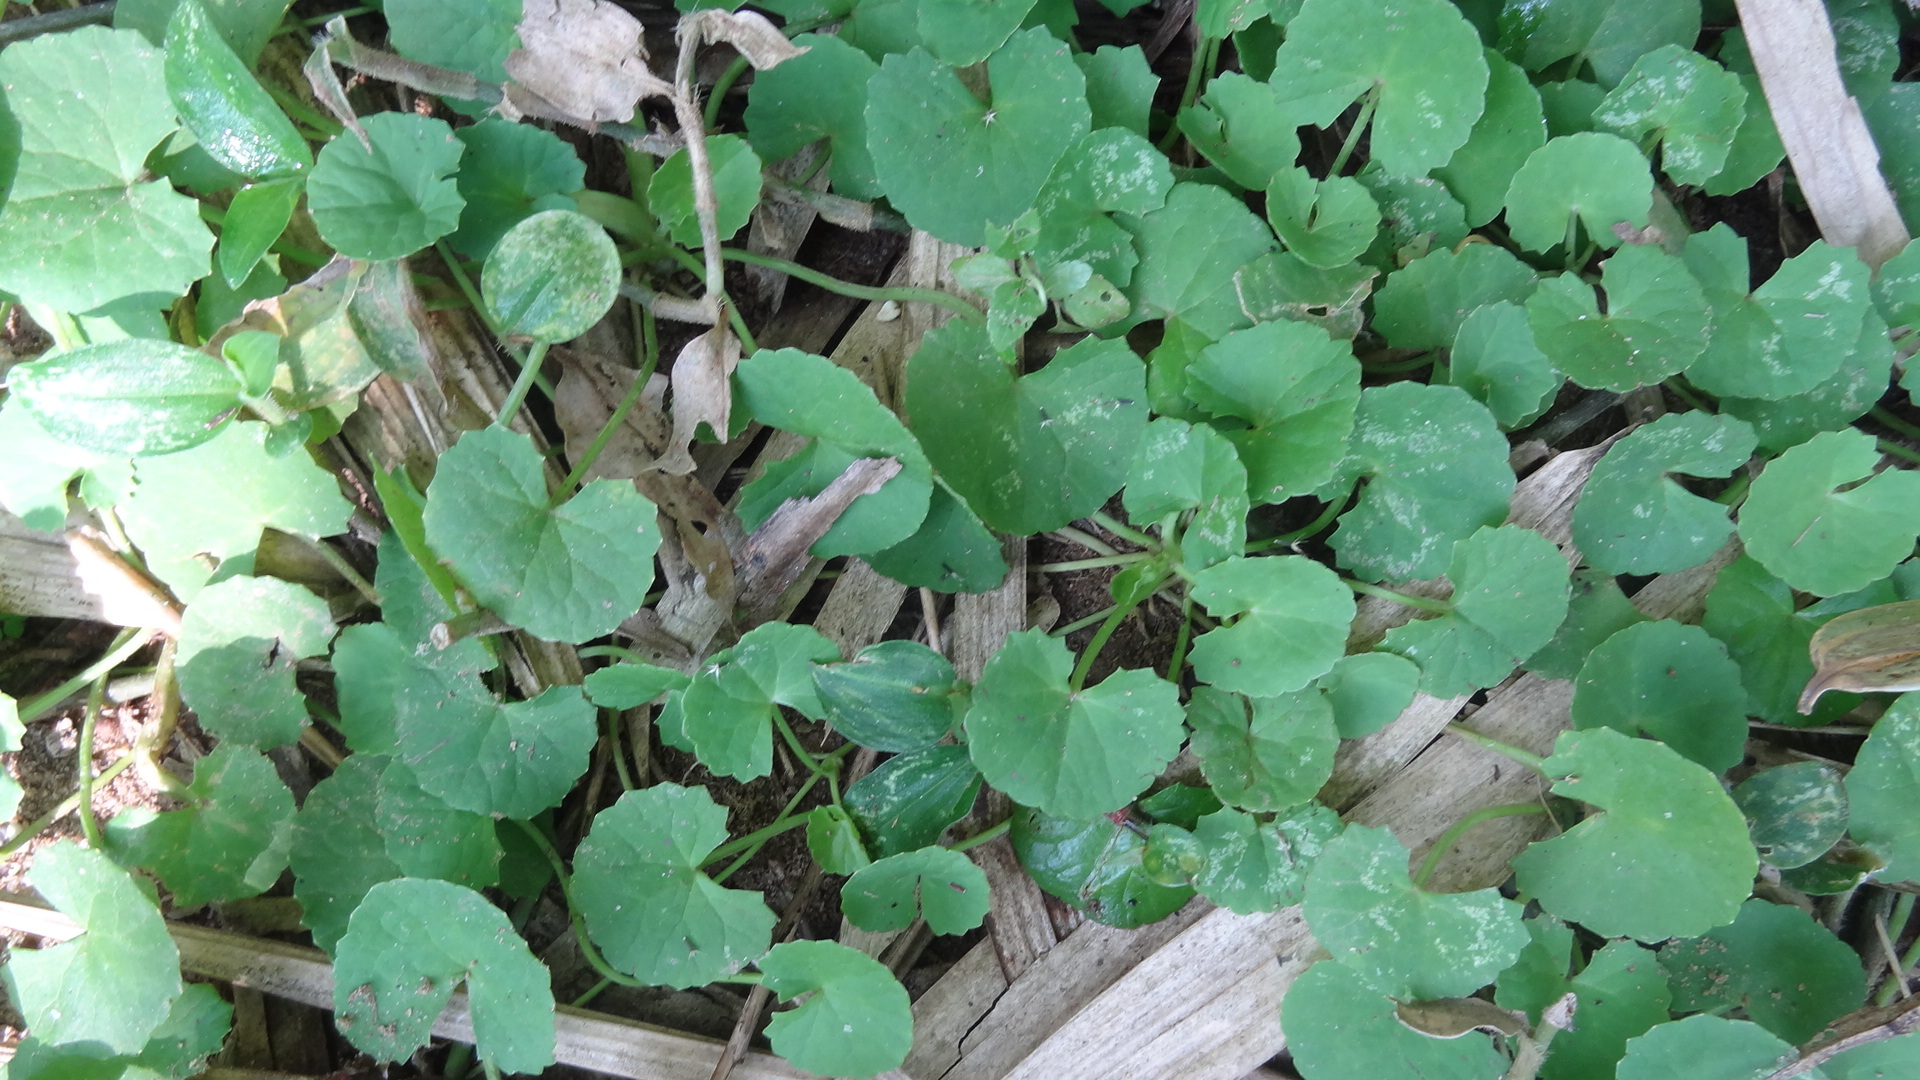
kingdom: Plantae
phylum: Tracheophyta
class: Magnoliopsida
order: Apiales
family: Apiaceae
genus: Centella
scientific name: Centella asiatica
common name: Spadeleaf
